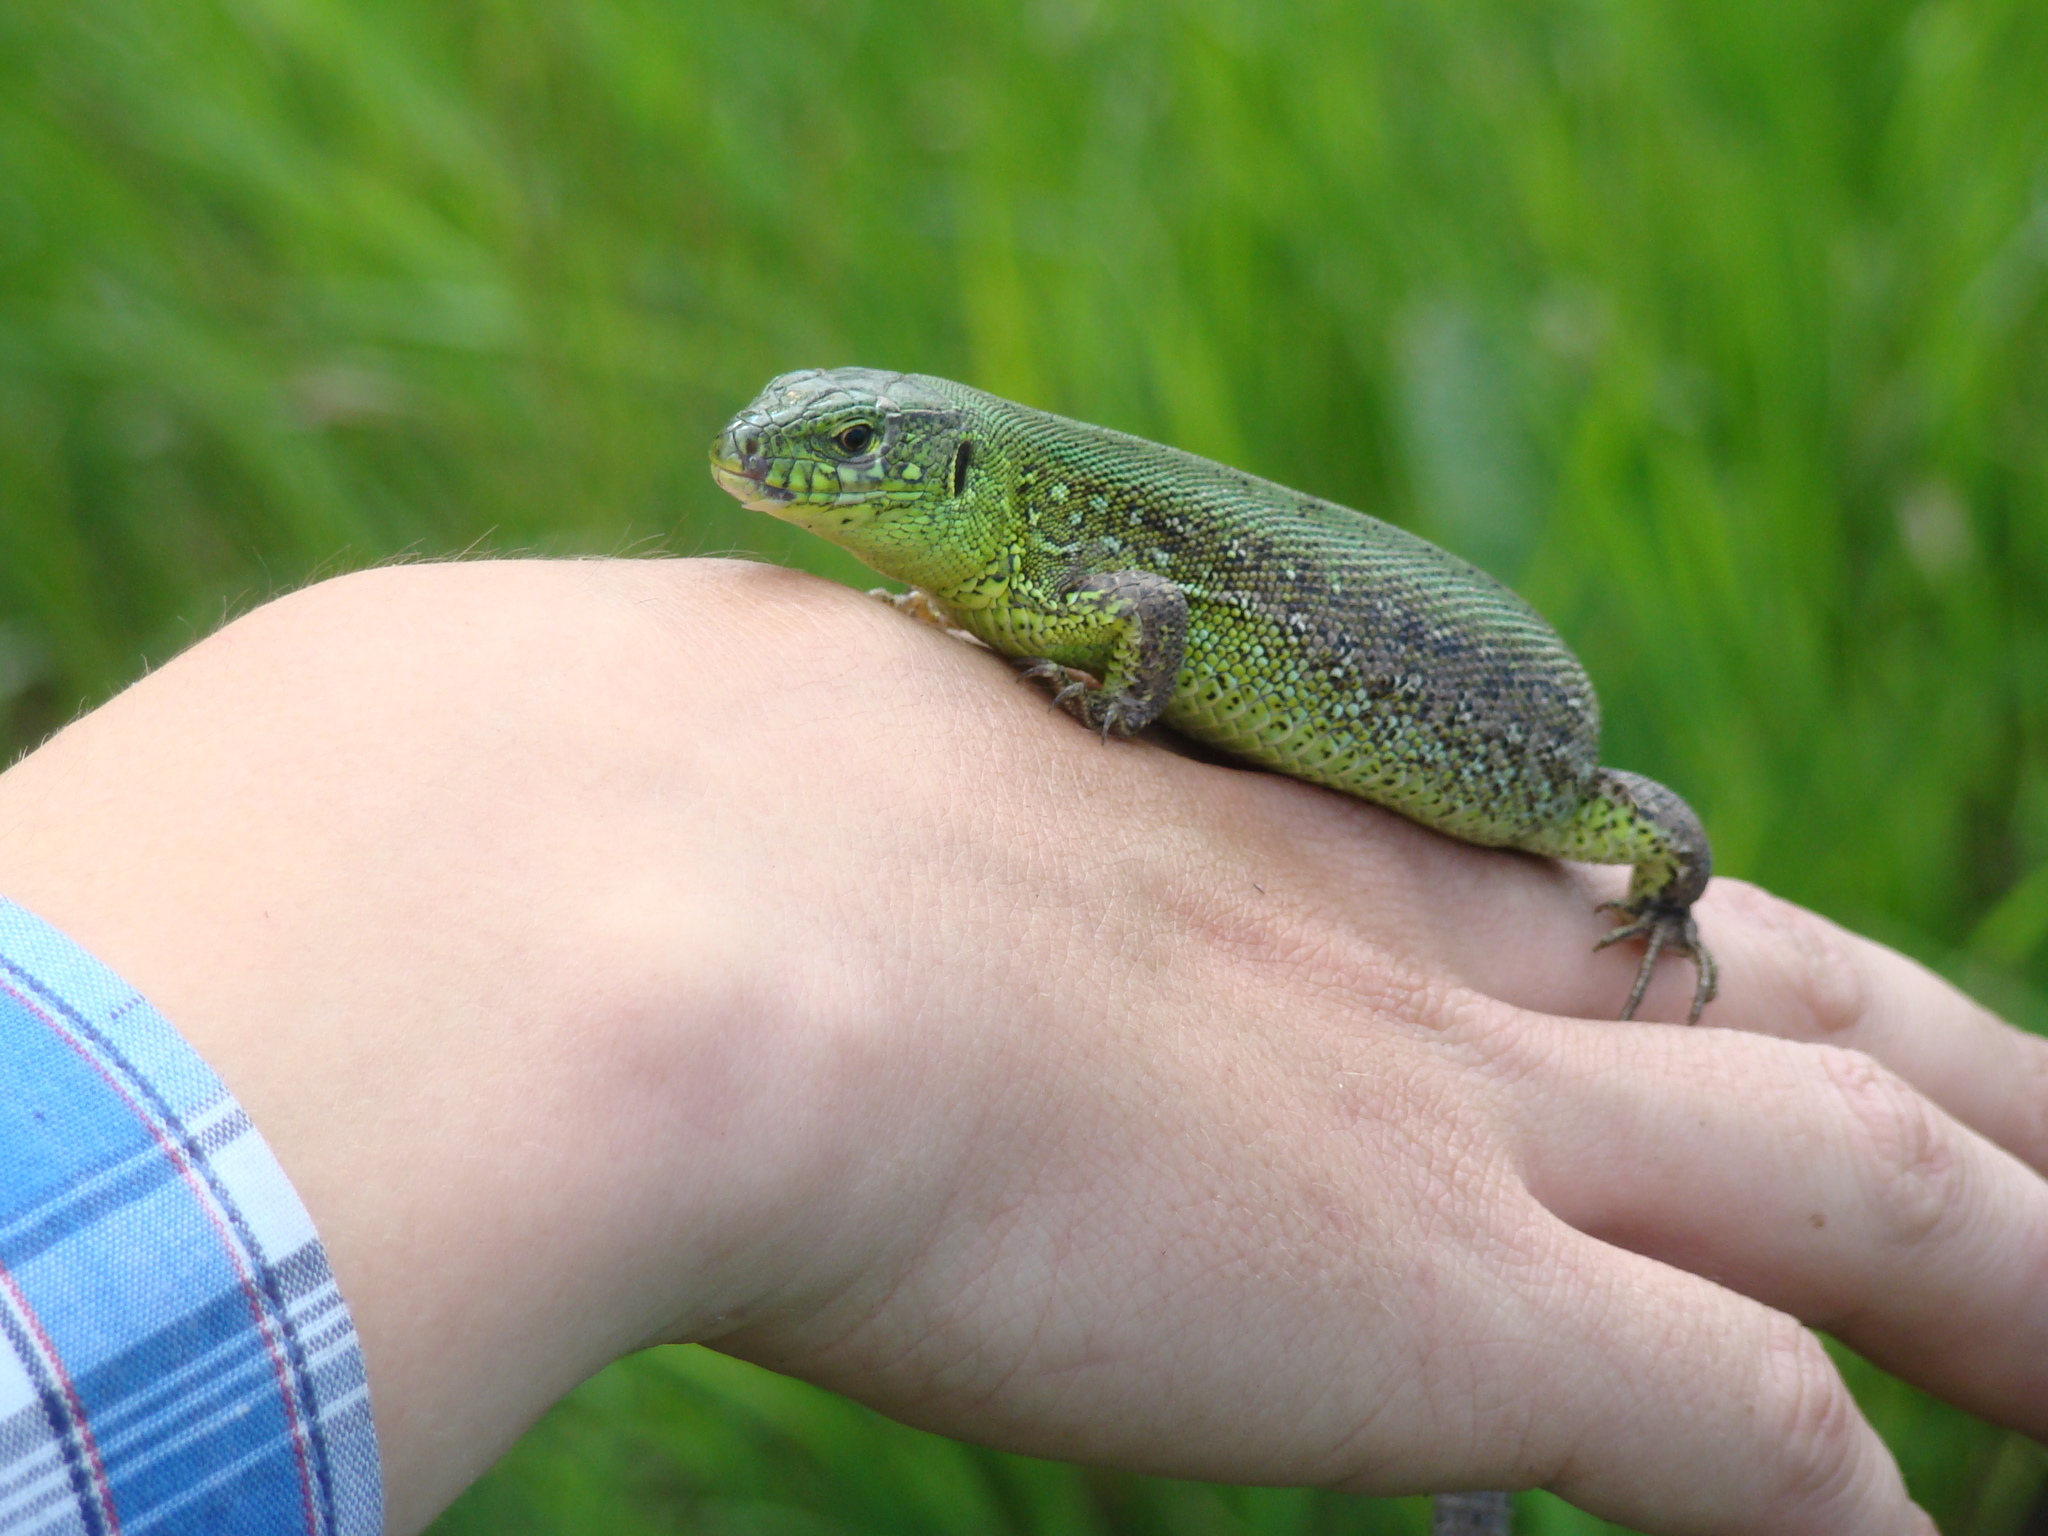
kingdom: Animalia
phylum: Chordata
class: Squamata
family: Lacertidae
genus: Lacerta
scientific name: Lacerta agilis
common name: Sand lizard
